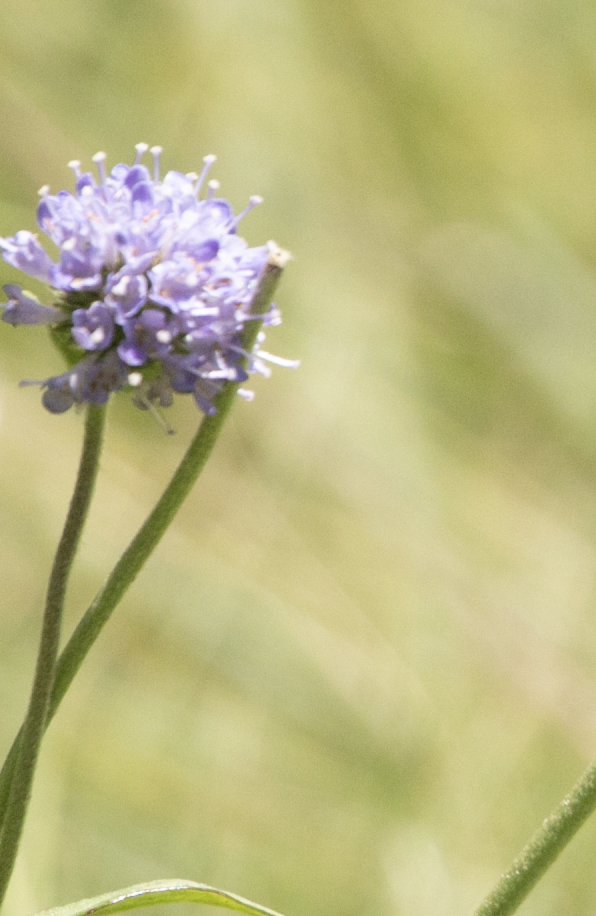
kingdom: Plantae
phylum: Tracheophyta
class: Magnoliopsida
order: Dipsacales
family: Caprifoliaceae
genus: Succisa
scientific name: Succisa pratensis
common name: Devil's-bit
